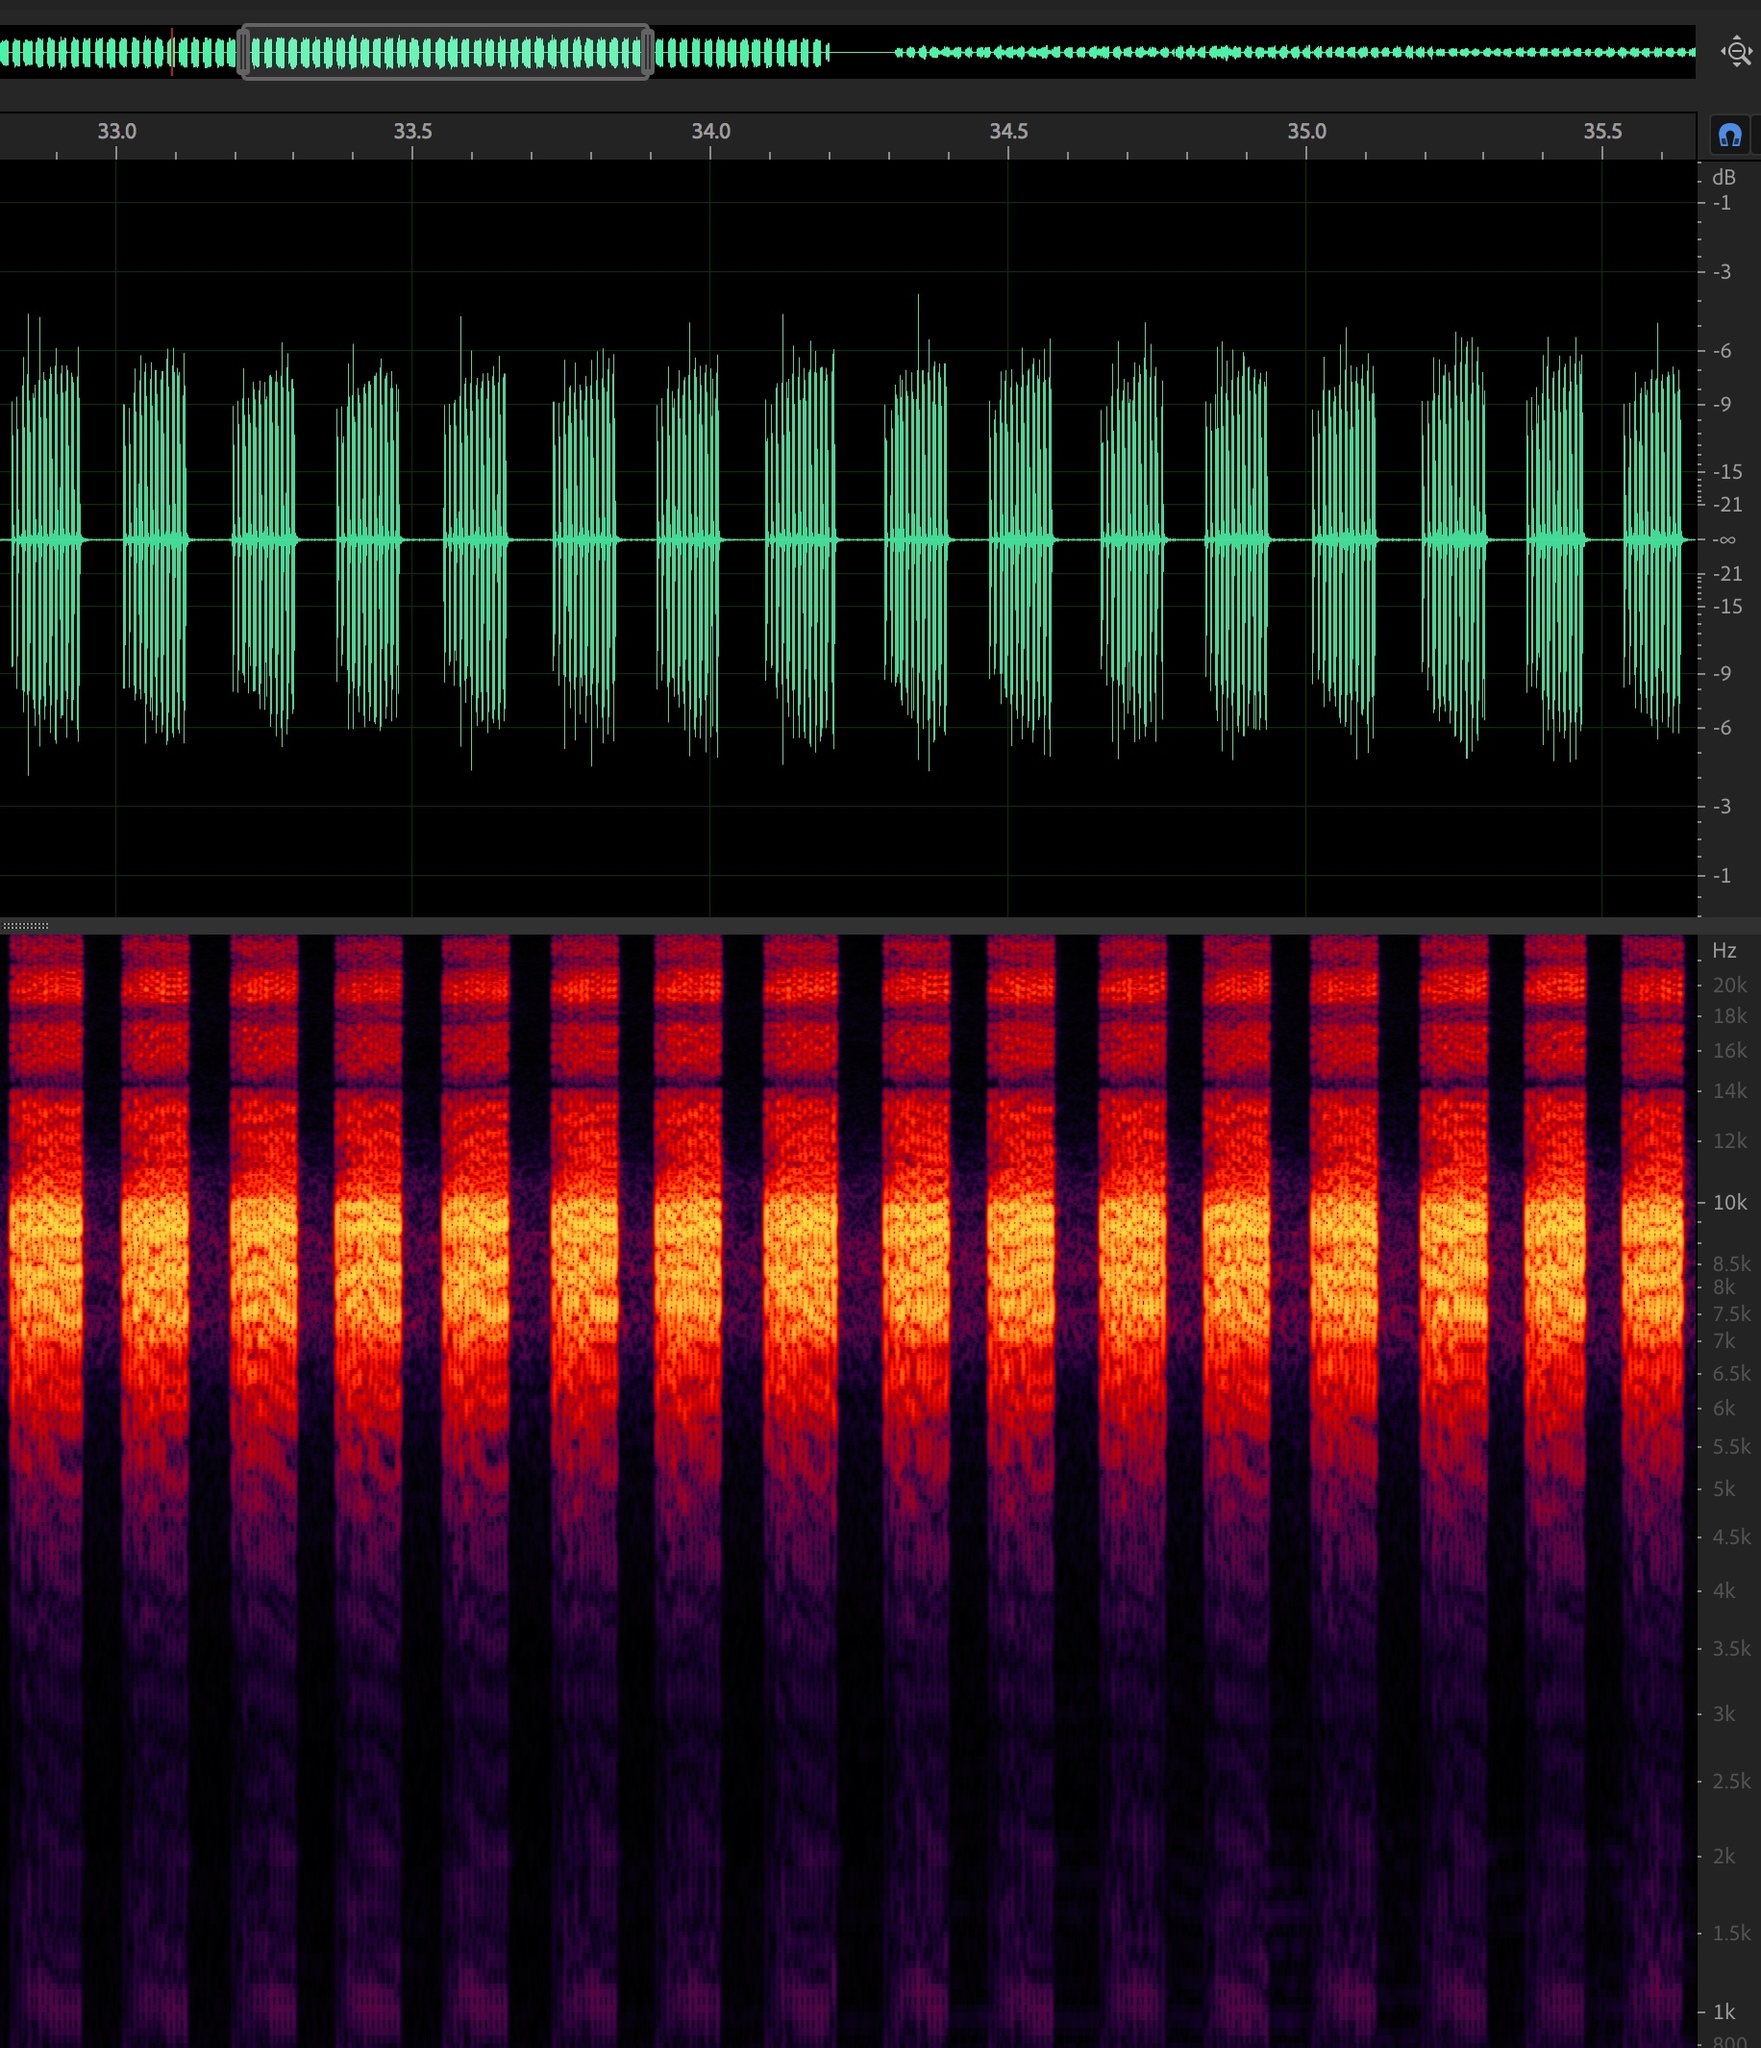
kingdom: Animalia
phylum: Arthropoda
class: Insecta
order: Hemiptera
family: Cicadidae
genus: Diceroprocta
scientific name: Diceroprocta texana
